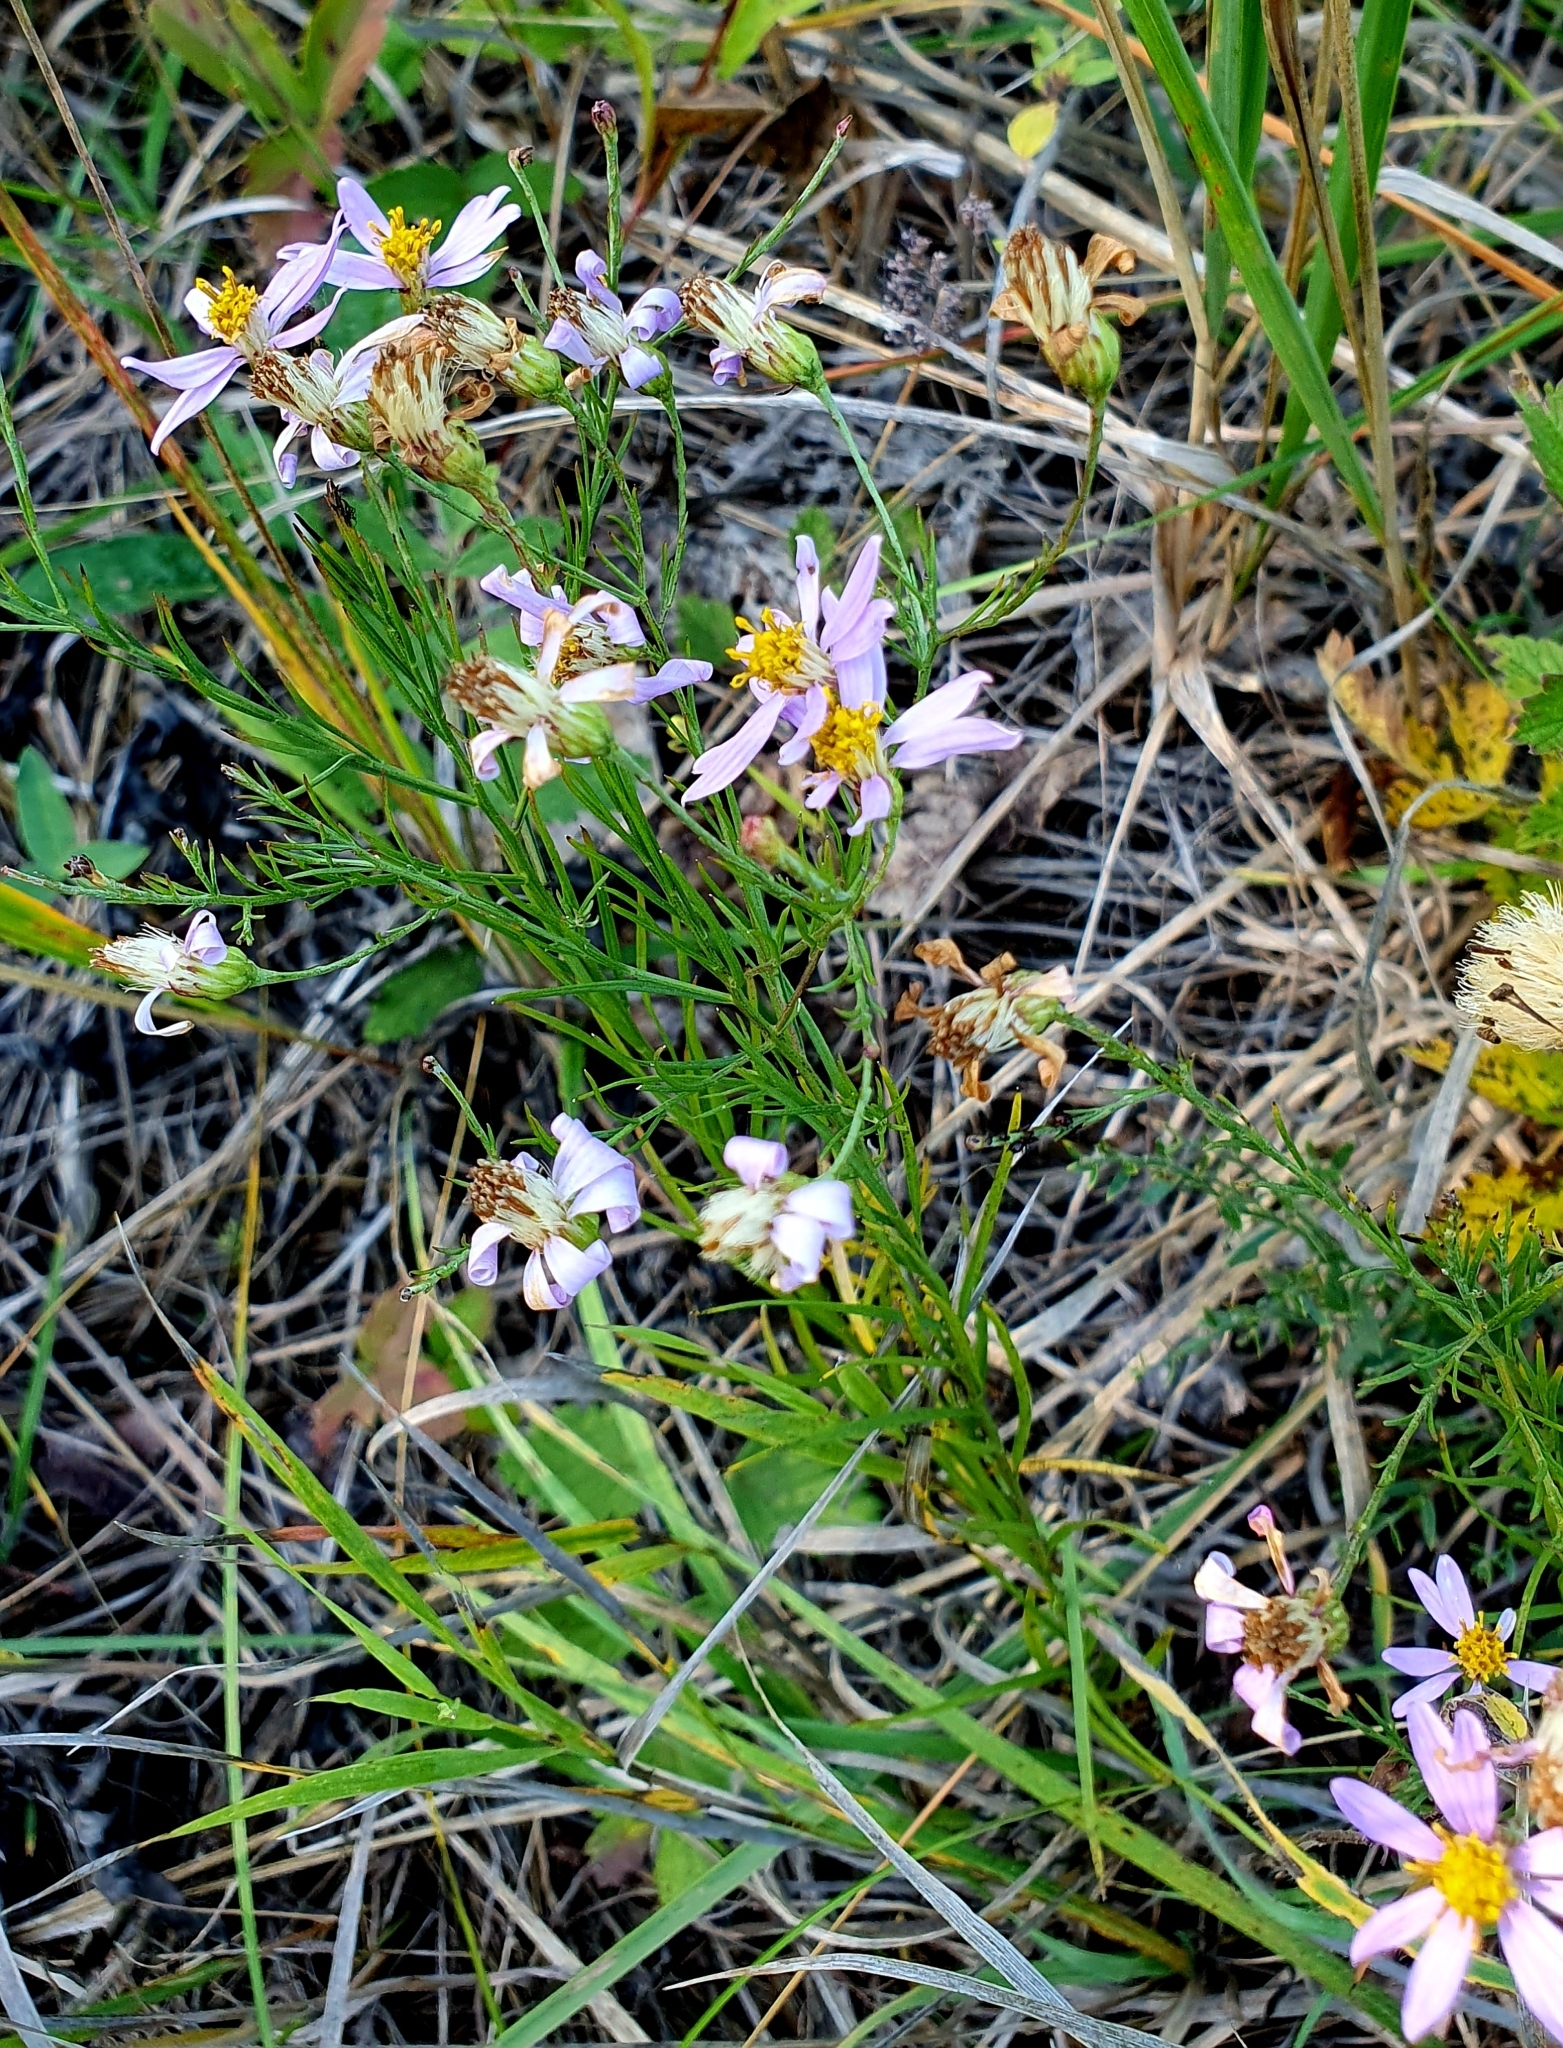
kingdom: Plantae
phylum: Tracheophyta
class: Magnoliopsida
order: Asterales
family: Asteraceae
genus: Galatella
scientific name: Galatella angustissima
